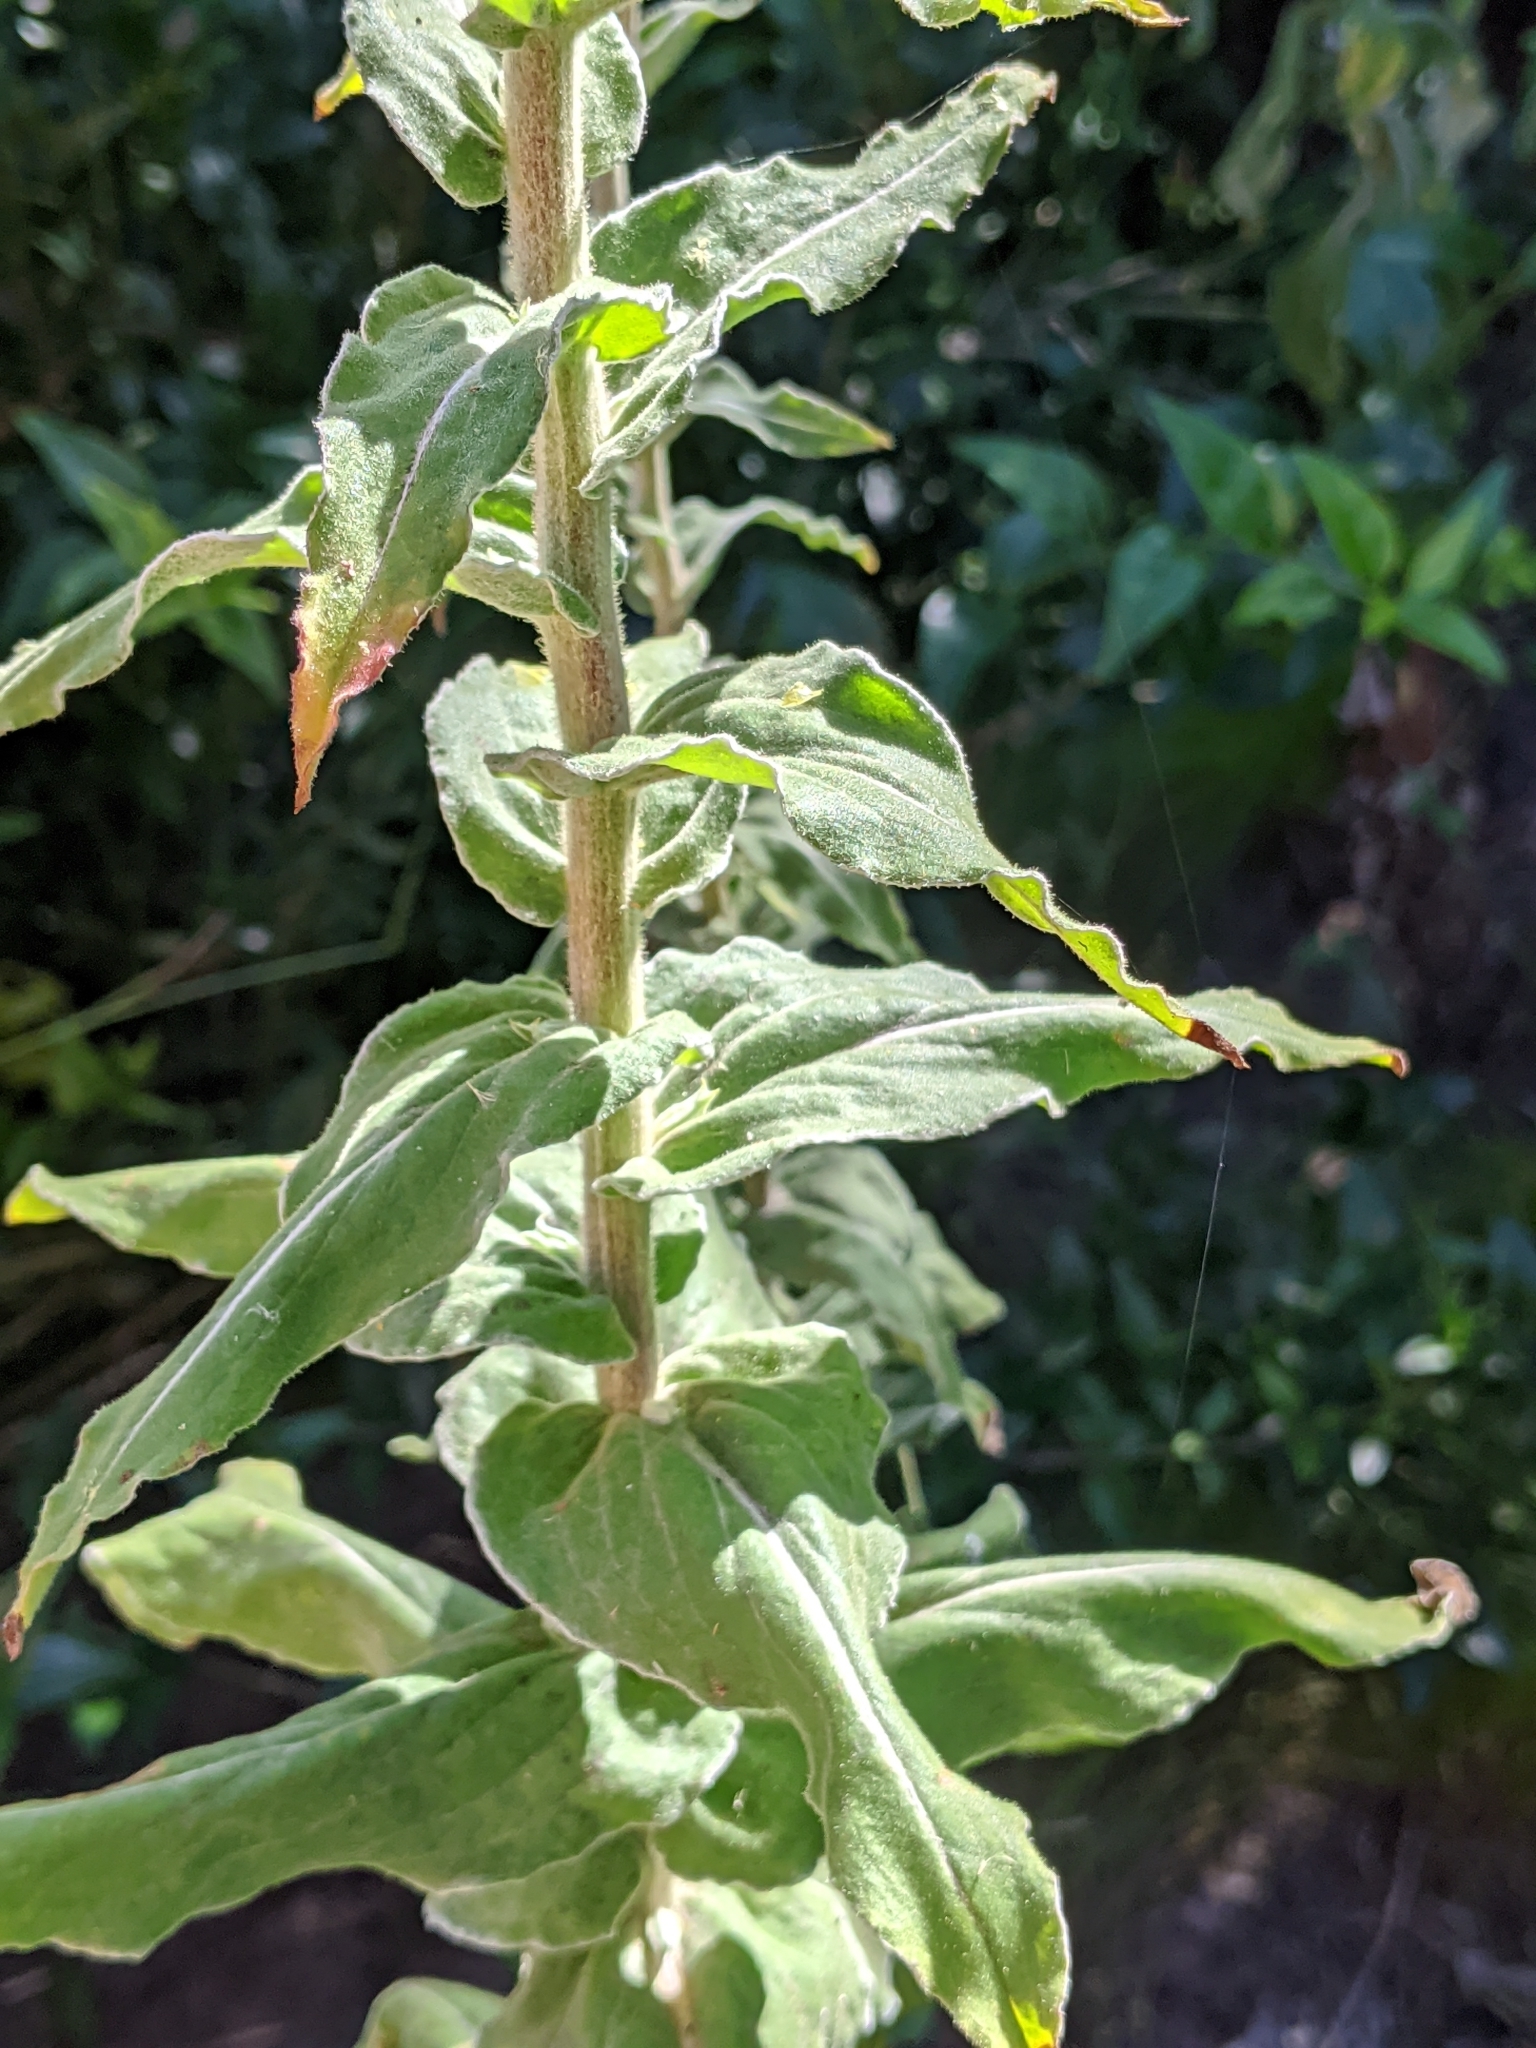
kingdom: Plantae
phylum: Tracheophyta
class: Magnoliopsida
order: Asterales
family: Asteraceae
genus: Helichrysum
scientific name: Helichrysum foetidum
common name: Stinking everlasting
